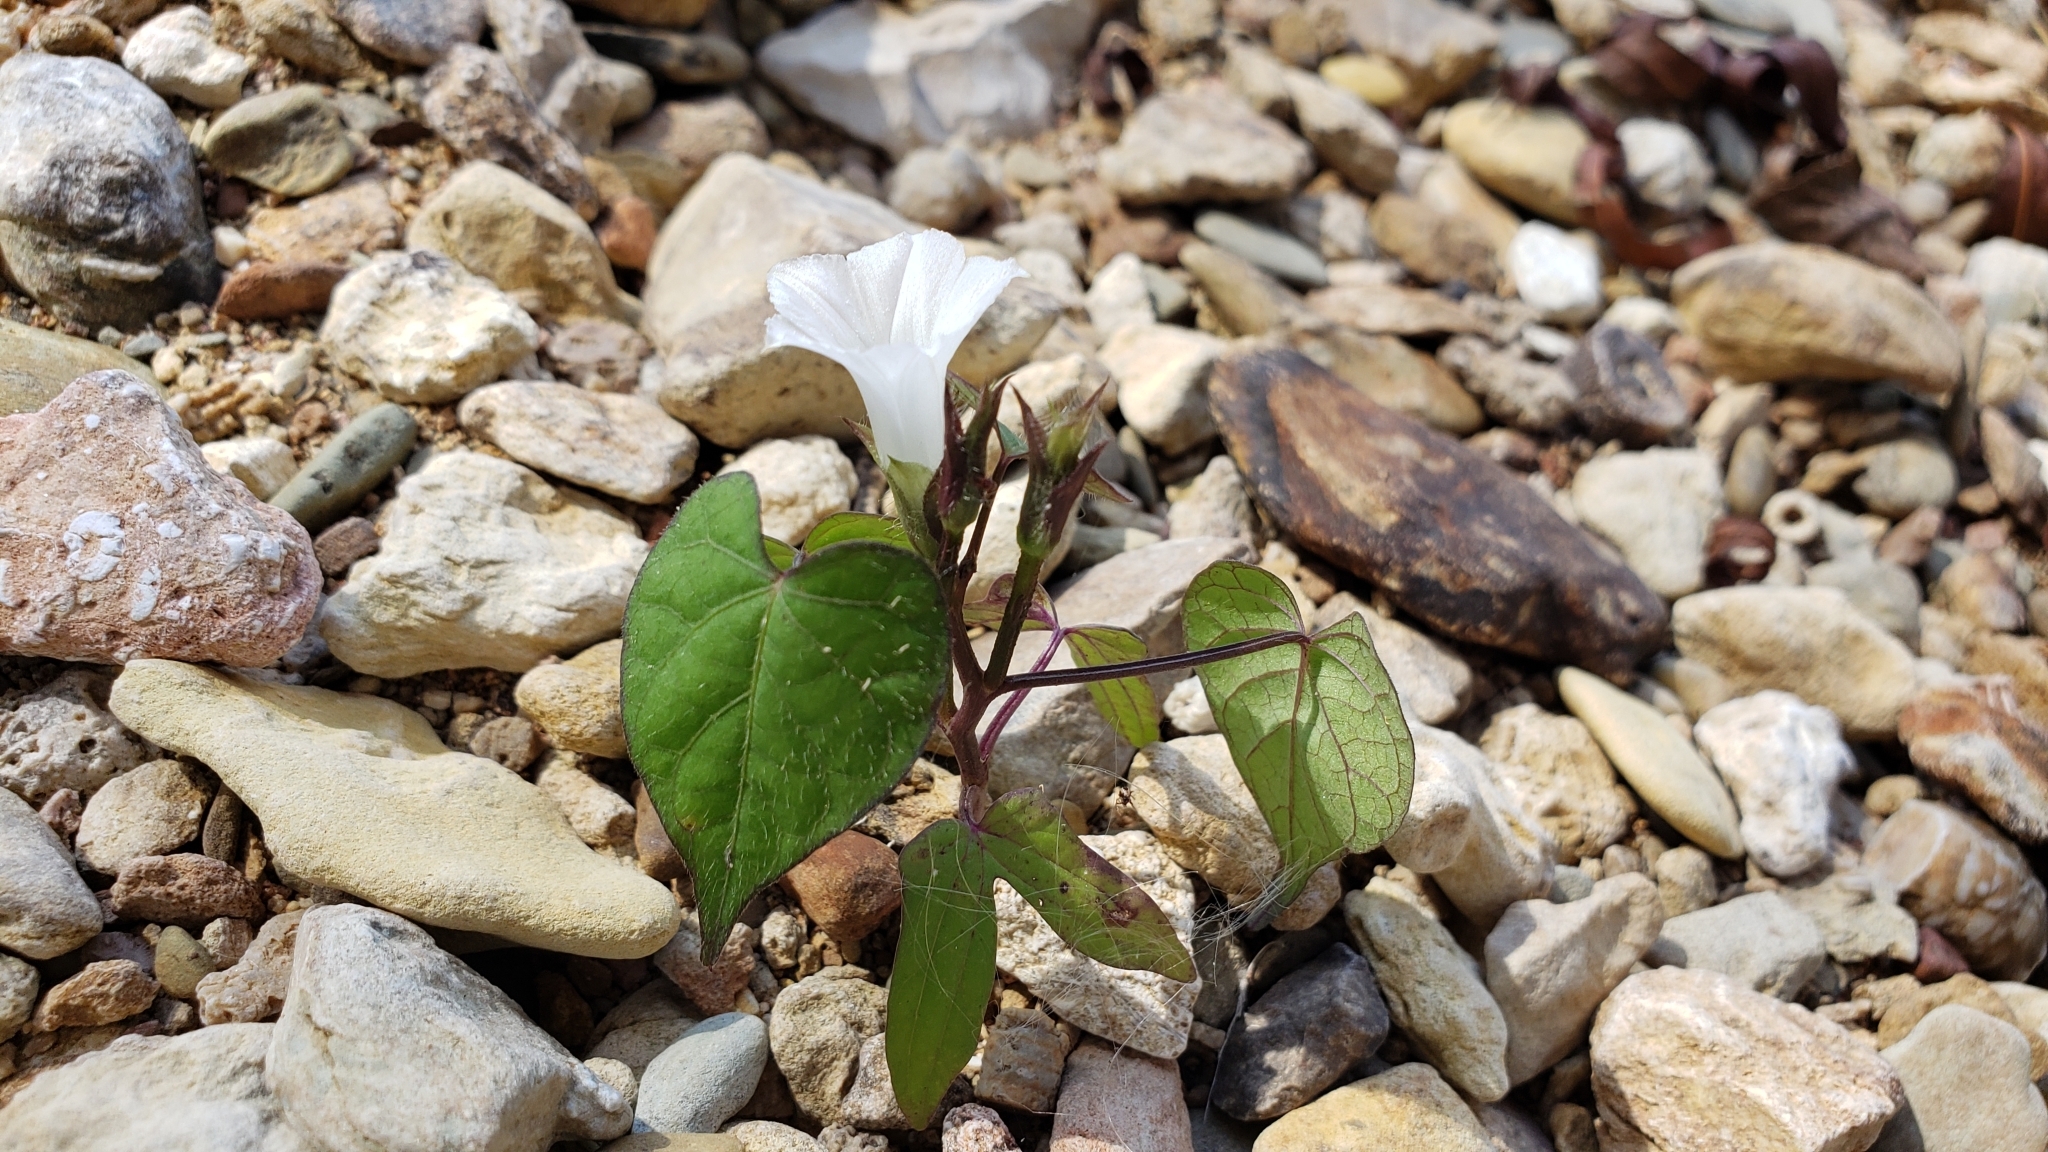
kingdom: Plantae
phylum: Tracheophyta
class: Magnoliopsida
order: Solanales
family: Convolvulaceae
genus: Ipomoea
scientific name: Ipomoea lacunosa
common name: White morning-glory
